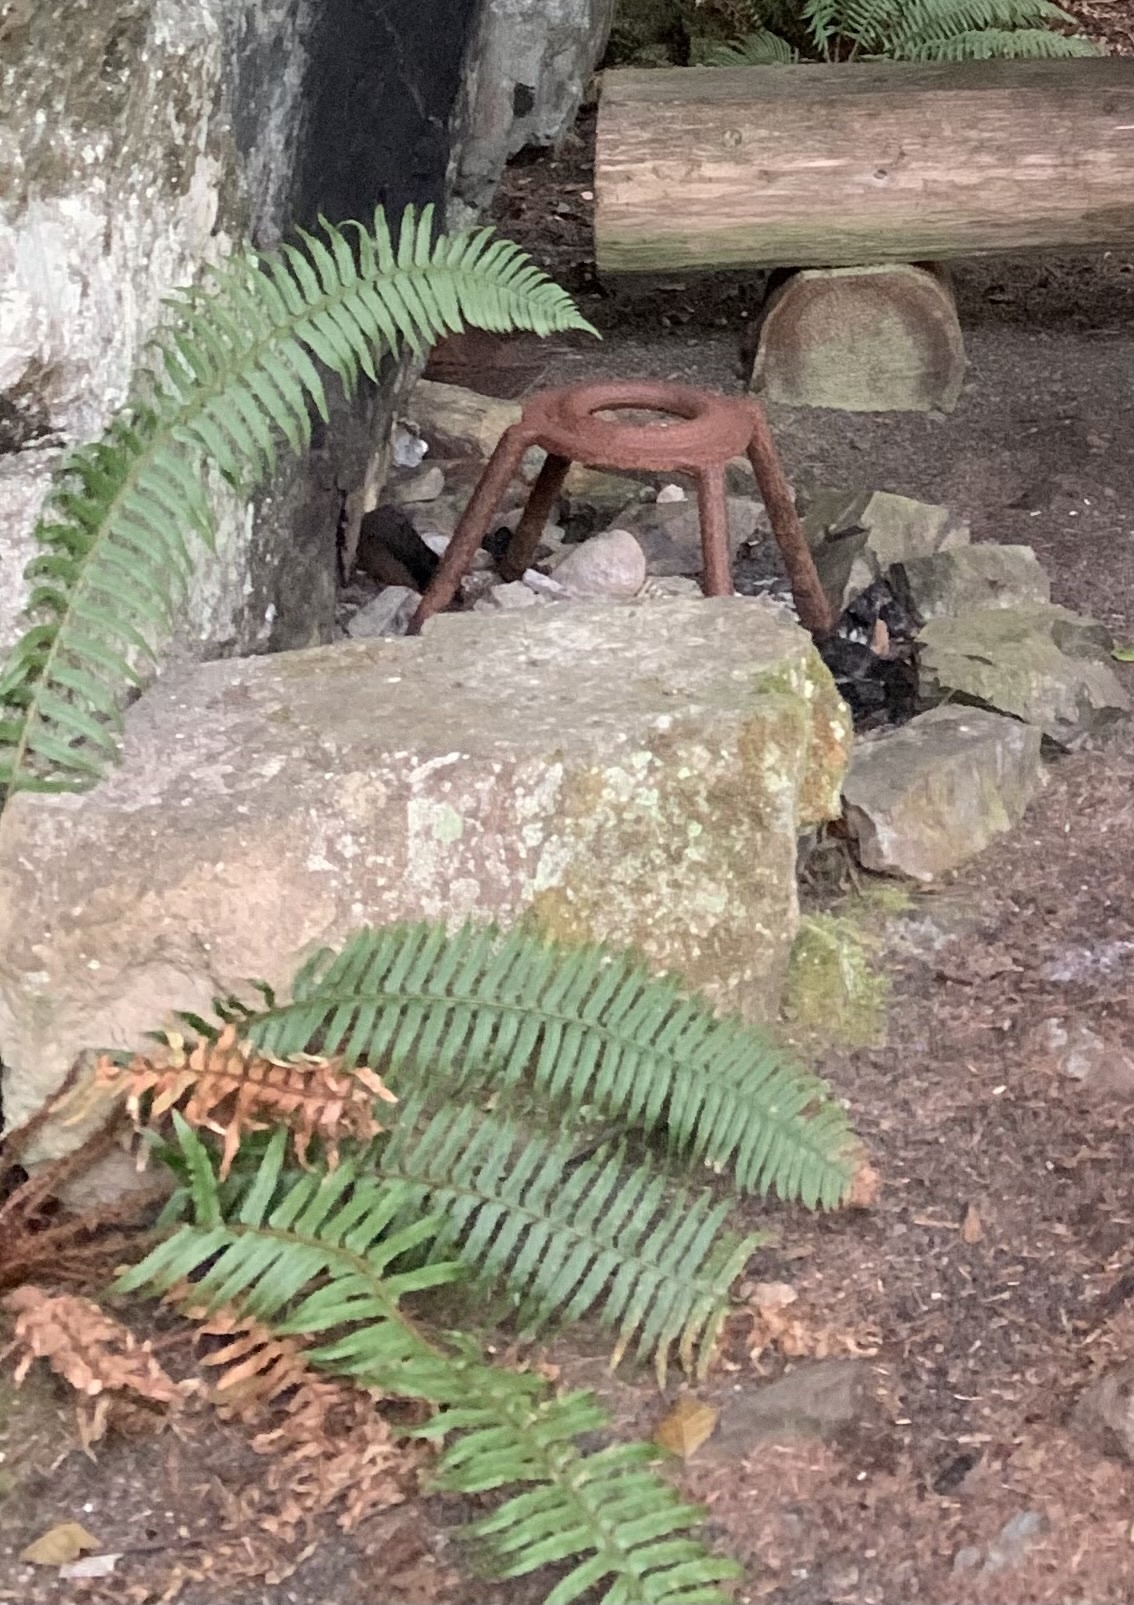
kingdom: Plantae
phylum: Tracheophyta
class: Polypodiopsida
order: Polypodiales
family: Dryopteridaceae
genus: Polystichum
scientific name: Polystichum munitum
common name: Western sword-fern
